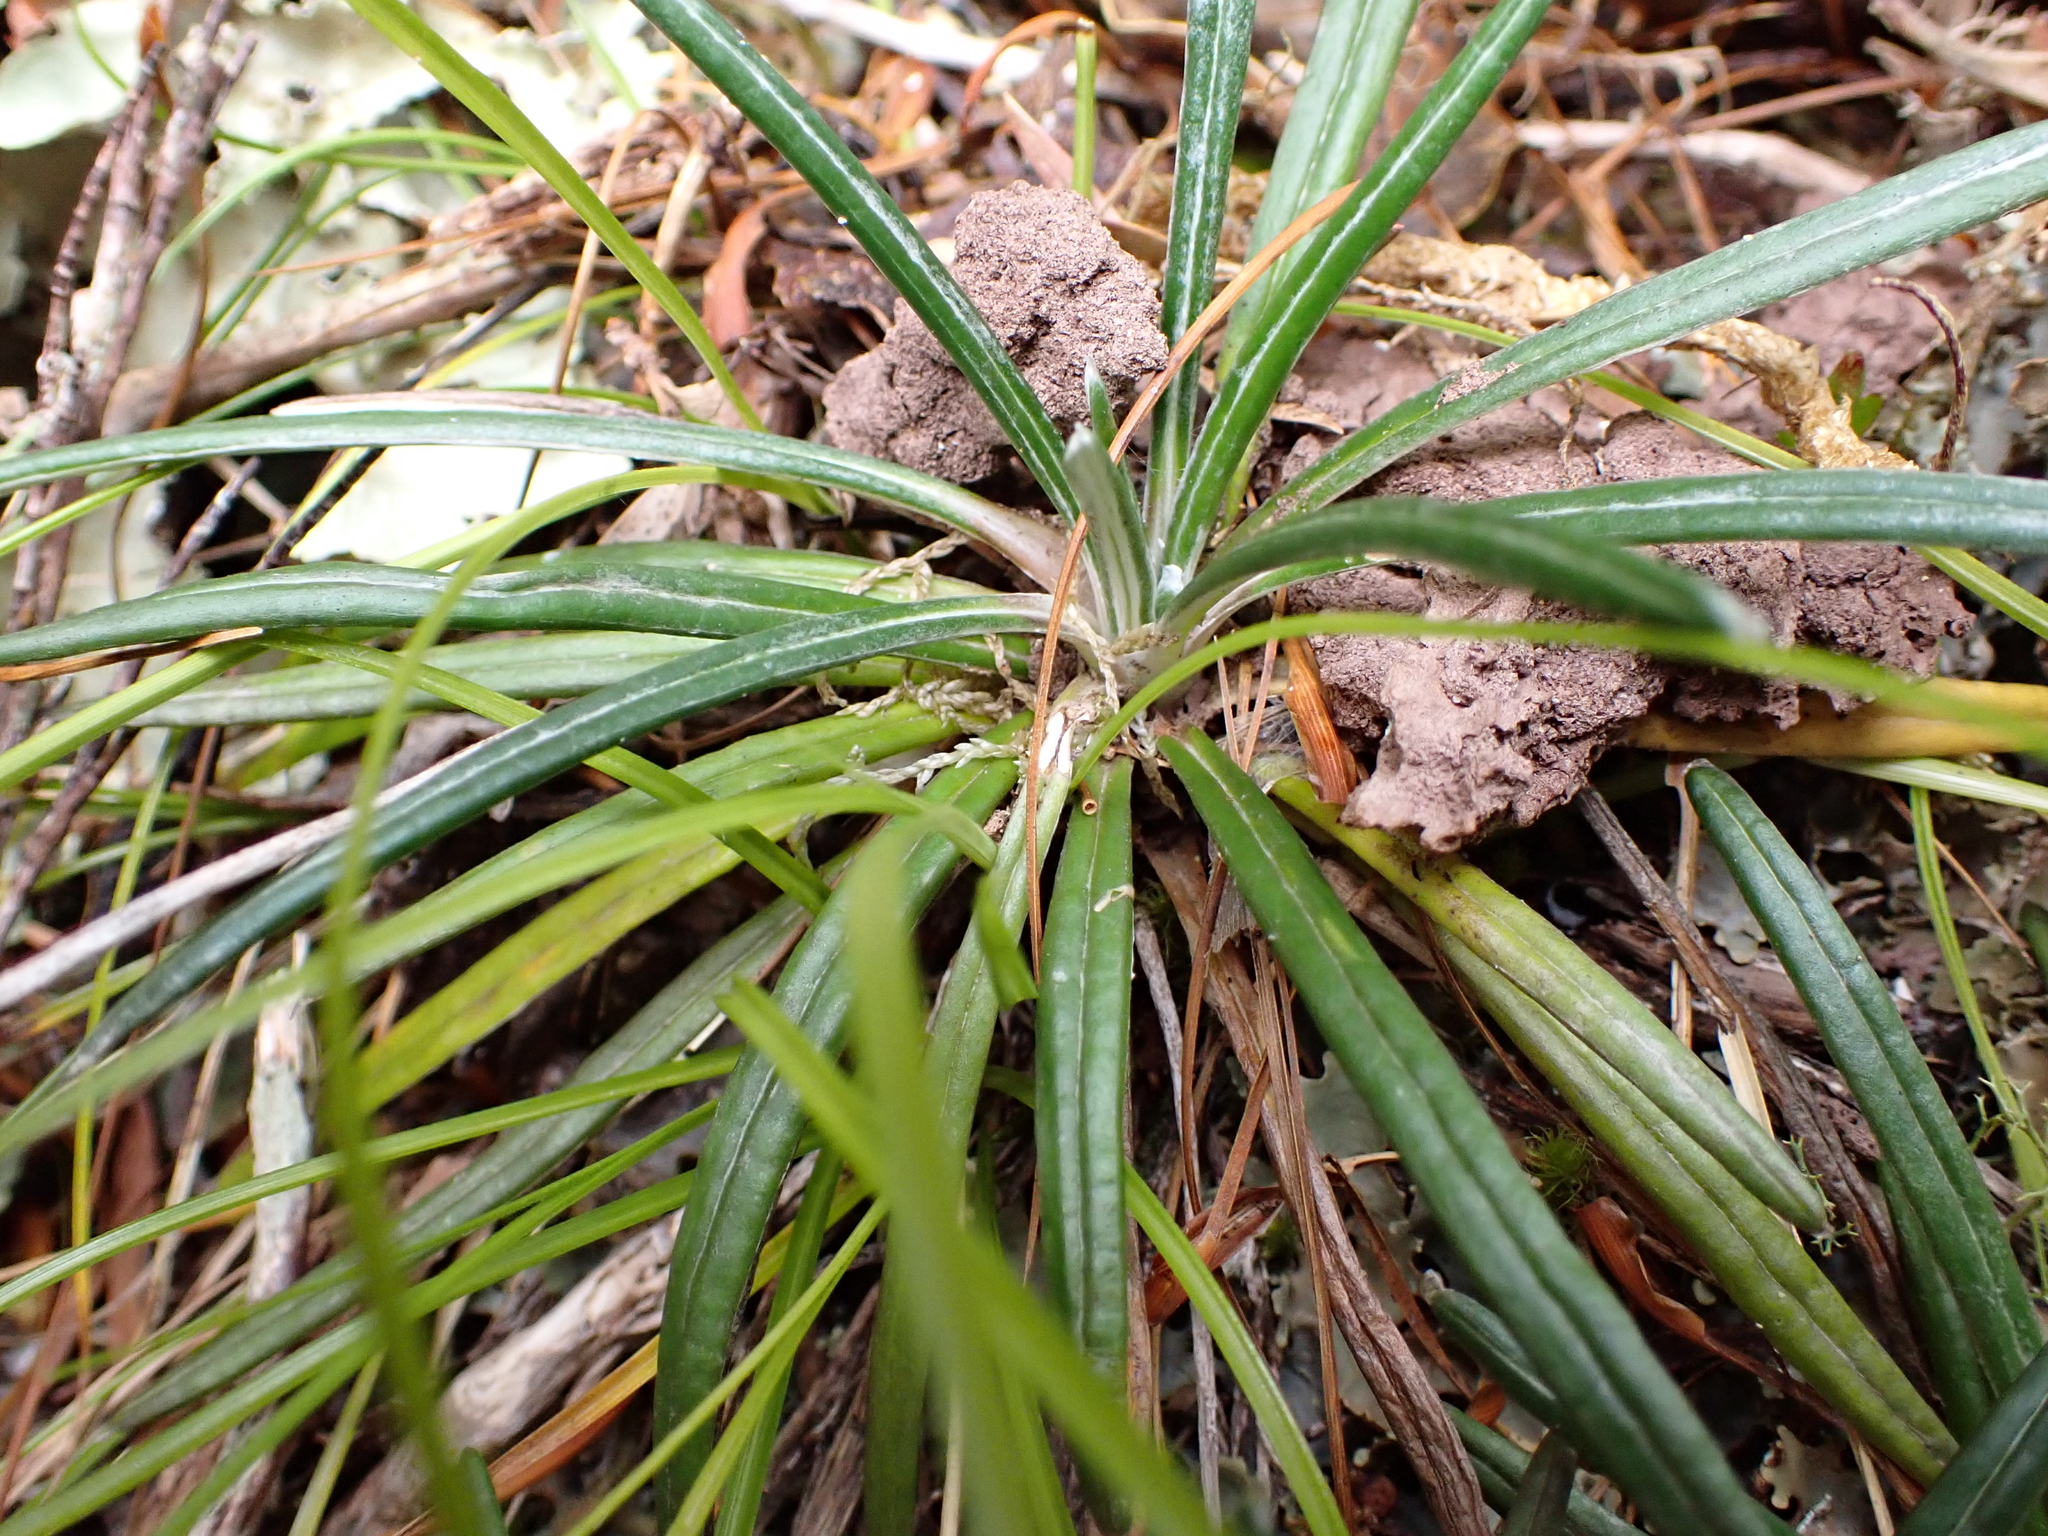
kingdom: Plantae
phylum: Tracheophyta
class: Magnoliopsida
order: Asterales
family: Asteraceae
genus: Celmisia
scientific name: Celmisia major
